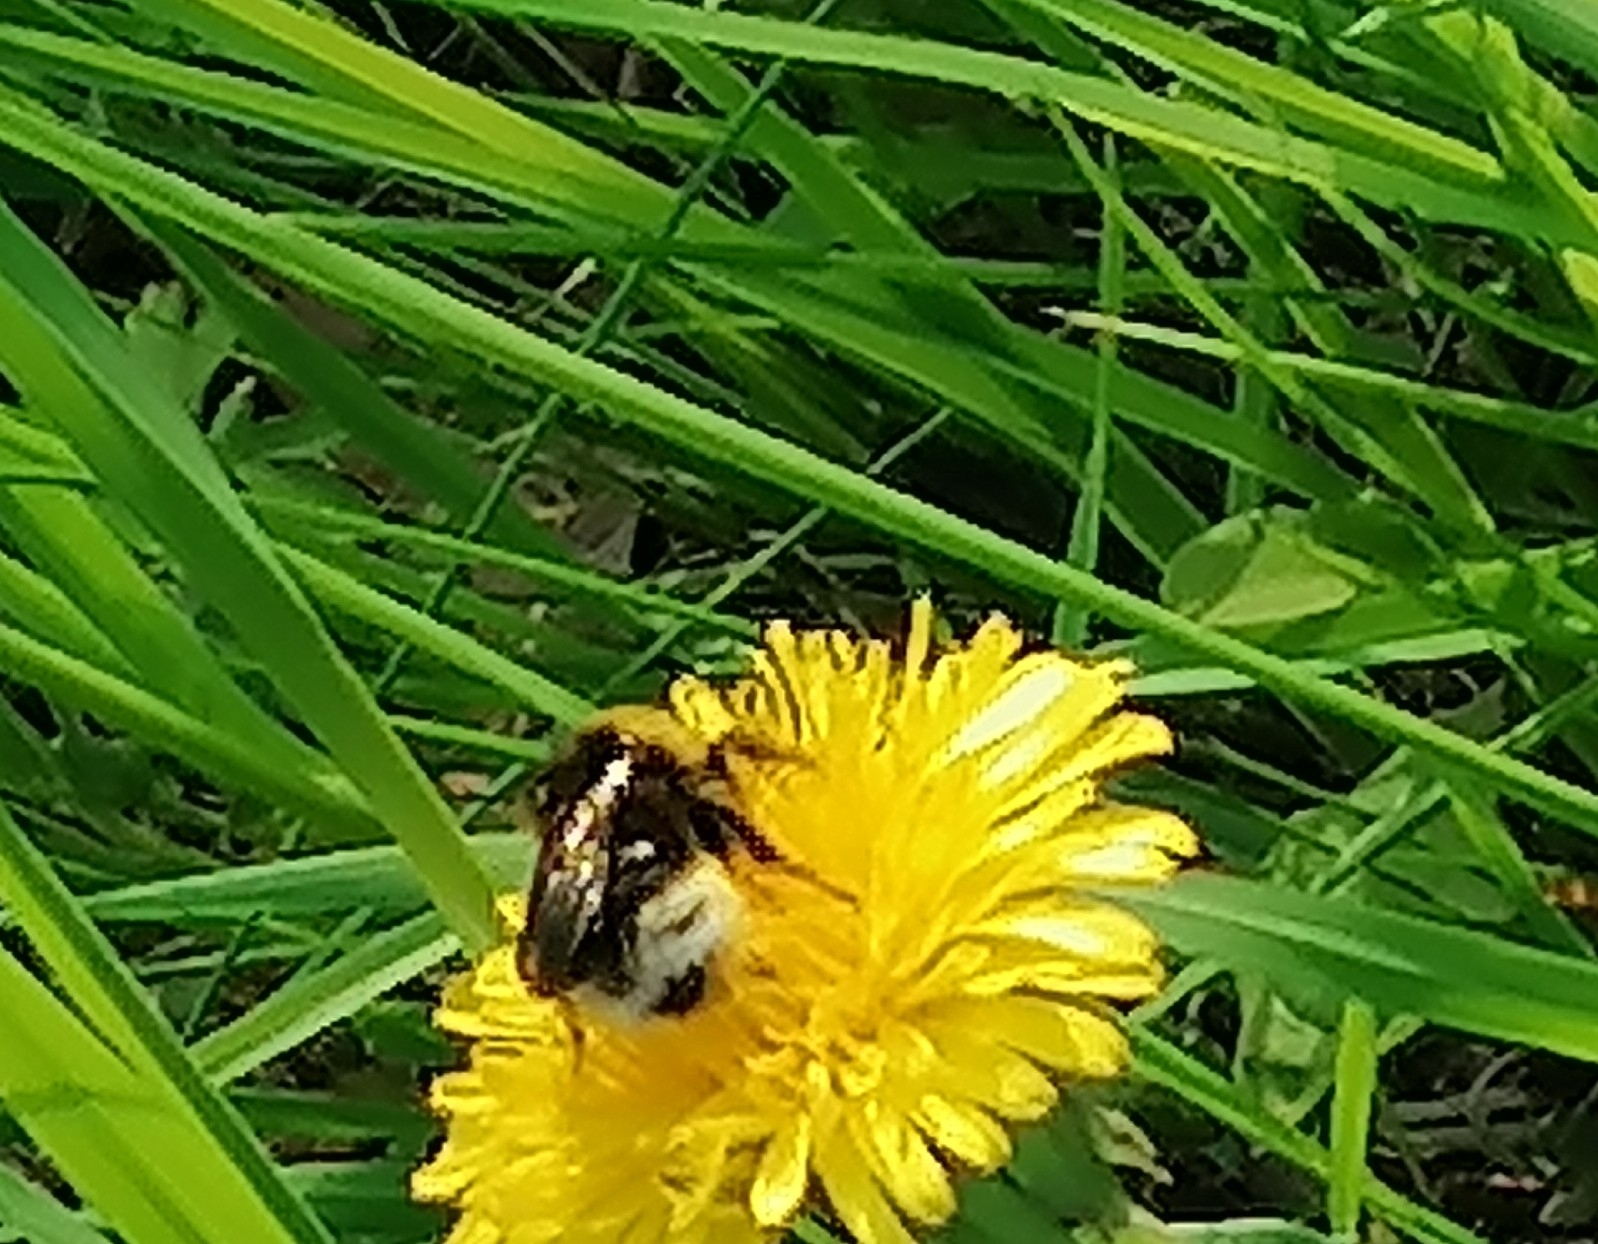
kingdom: Animalia
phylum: Arthropoda
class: Insecta
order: Hymenoptera
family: Apidae
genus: Bombus
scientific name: Bombus
